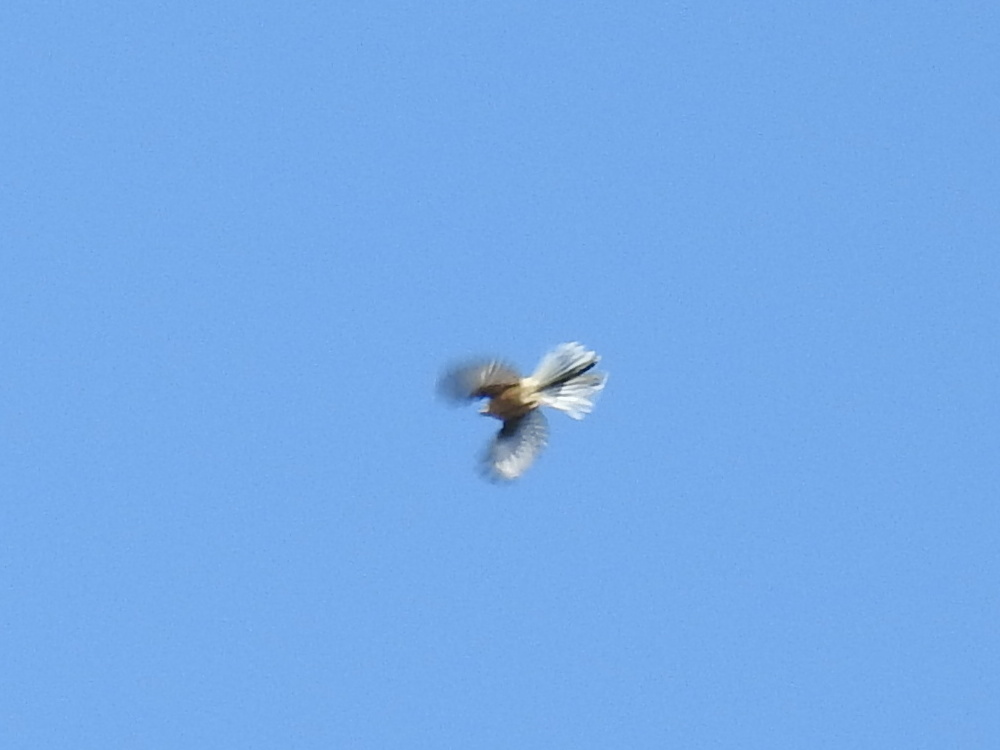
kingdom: Animalia
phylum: Chordata
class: Aves
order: Passeriformes
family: Rhipiduridae
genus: Rhipidura
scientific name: Rhipidura fuliginosa
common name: New zealand fantail
